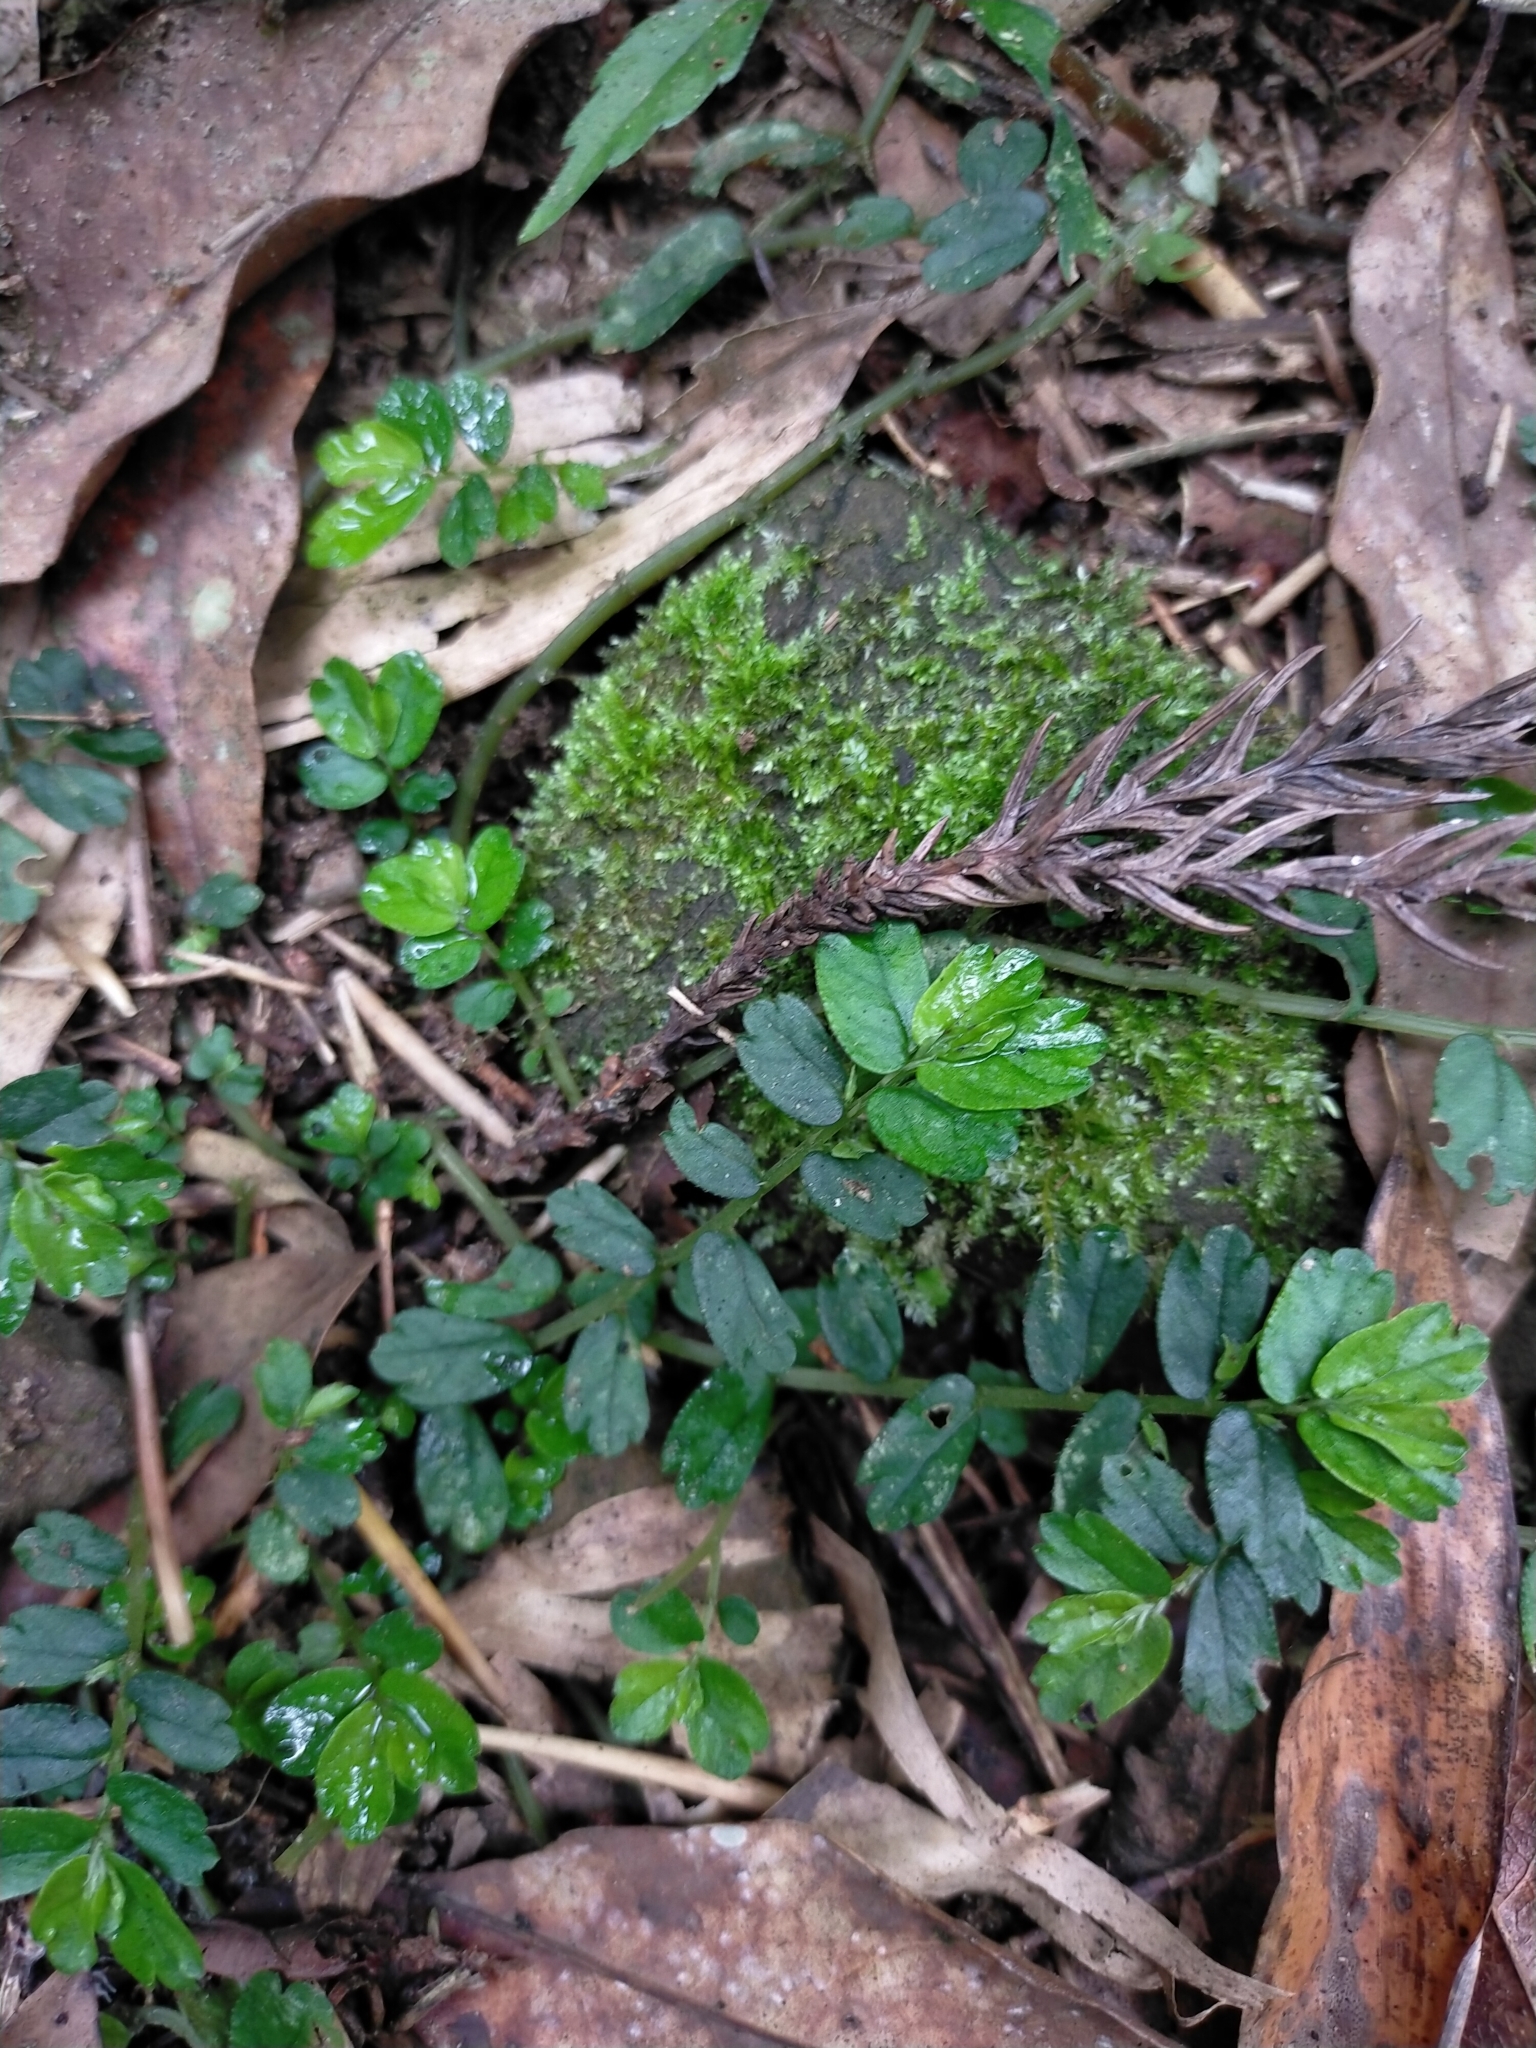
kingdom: Plantae
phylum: Tracheophyta
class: Magnoliopsida
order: Rosales
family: Urticaceae
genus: Elatostema
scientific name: Elatostema obtusum
